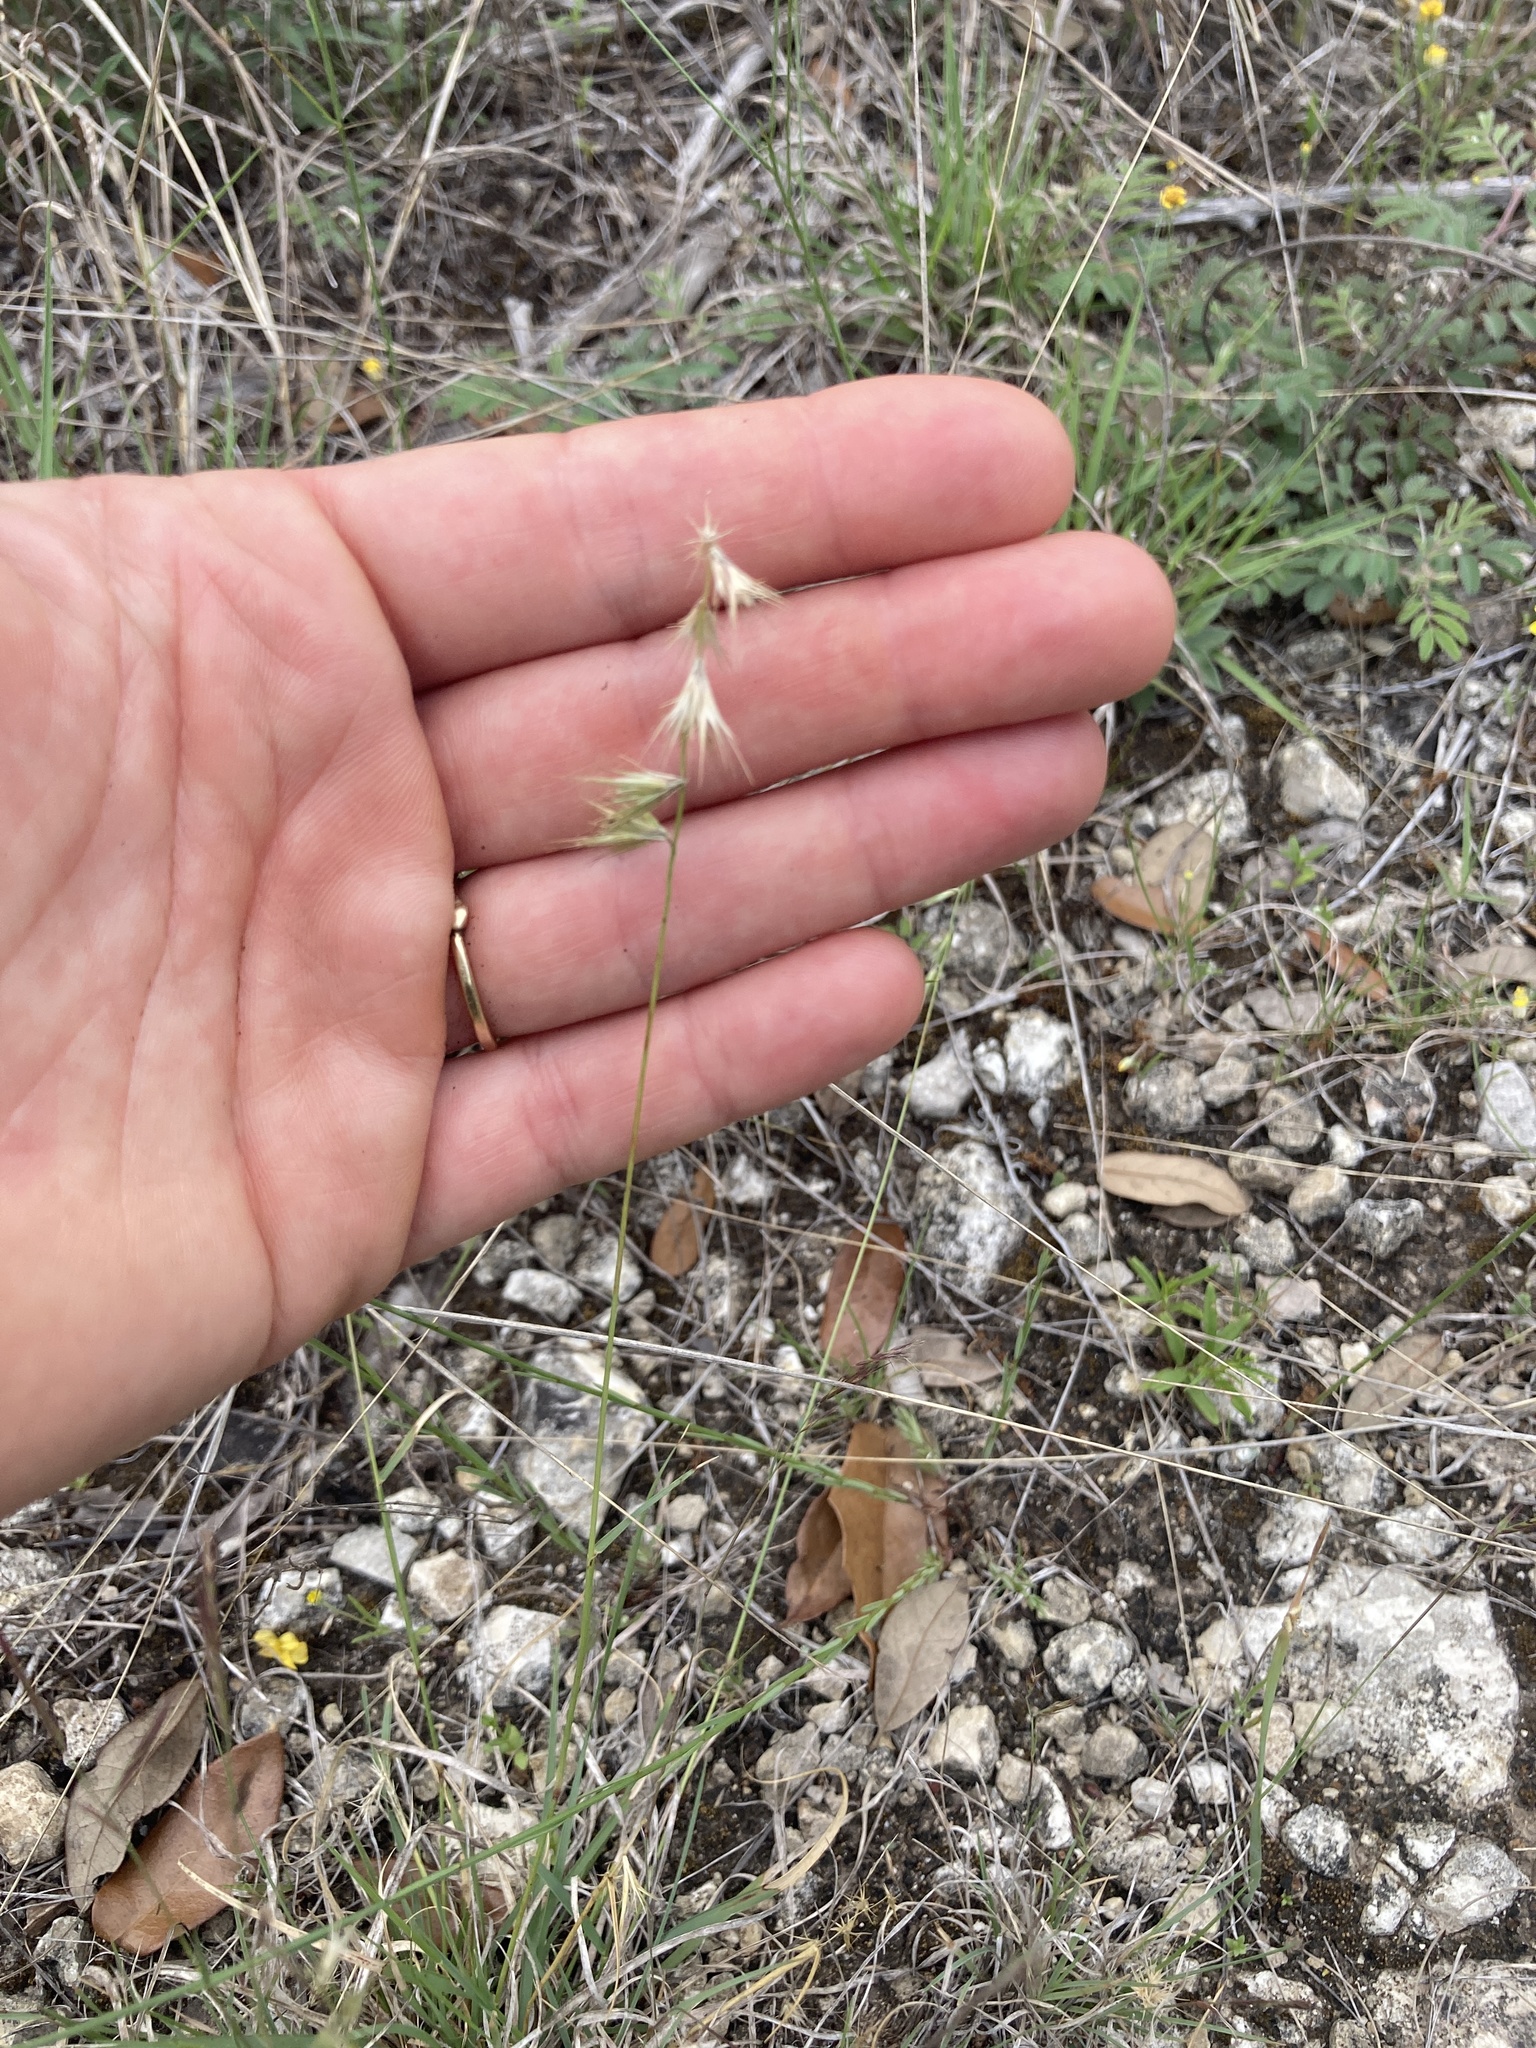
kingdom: Plantae
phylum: Tracheophyta
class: Liliopsida
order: Poales
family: Poaceae
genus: Bouteloua
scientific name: Bouteloua rigidiseta
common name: Texas grama
